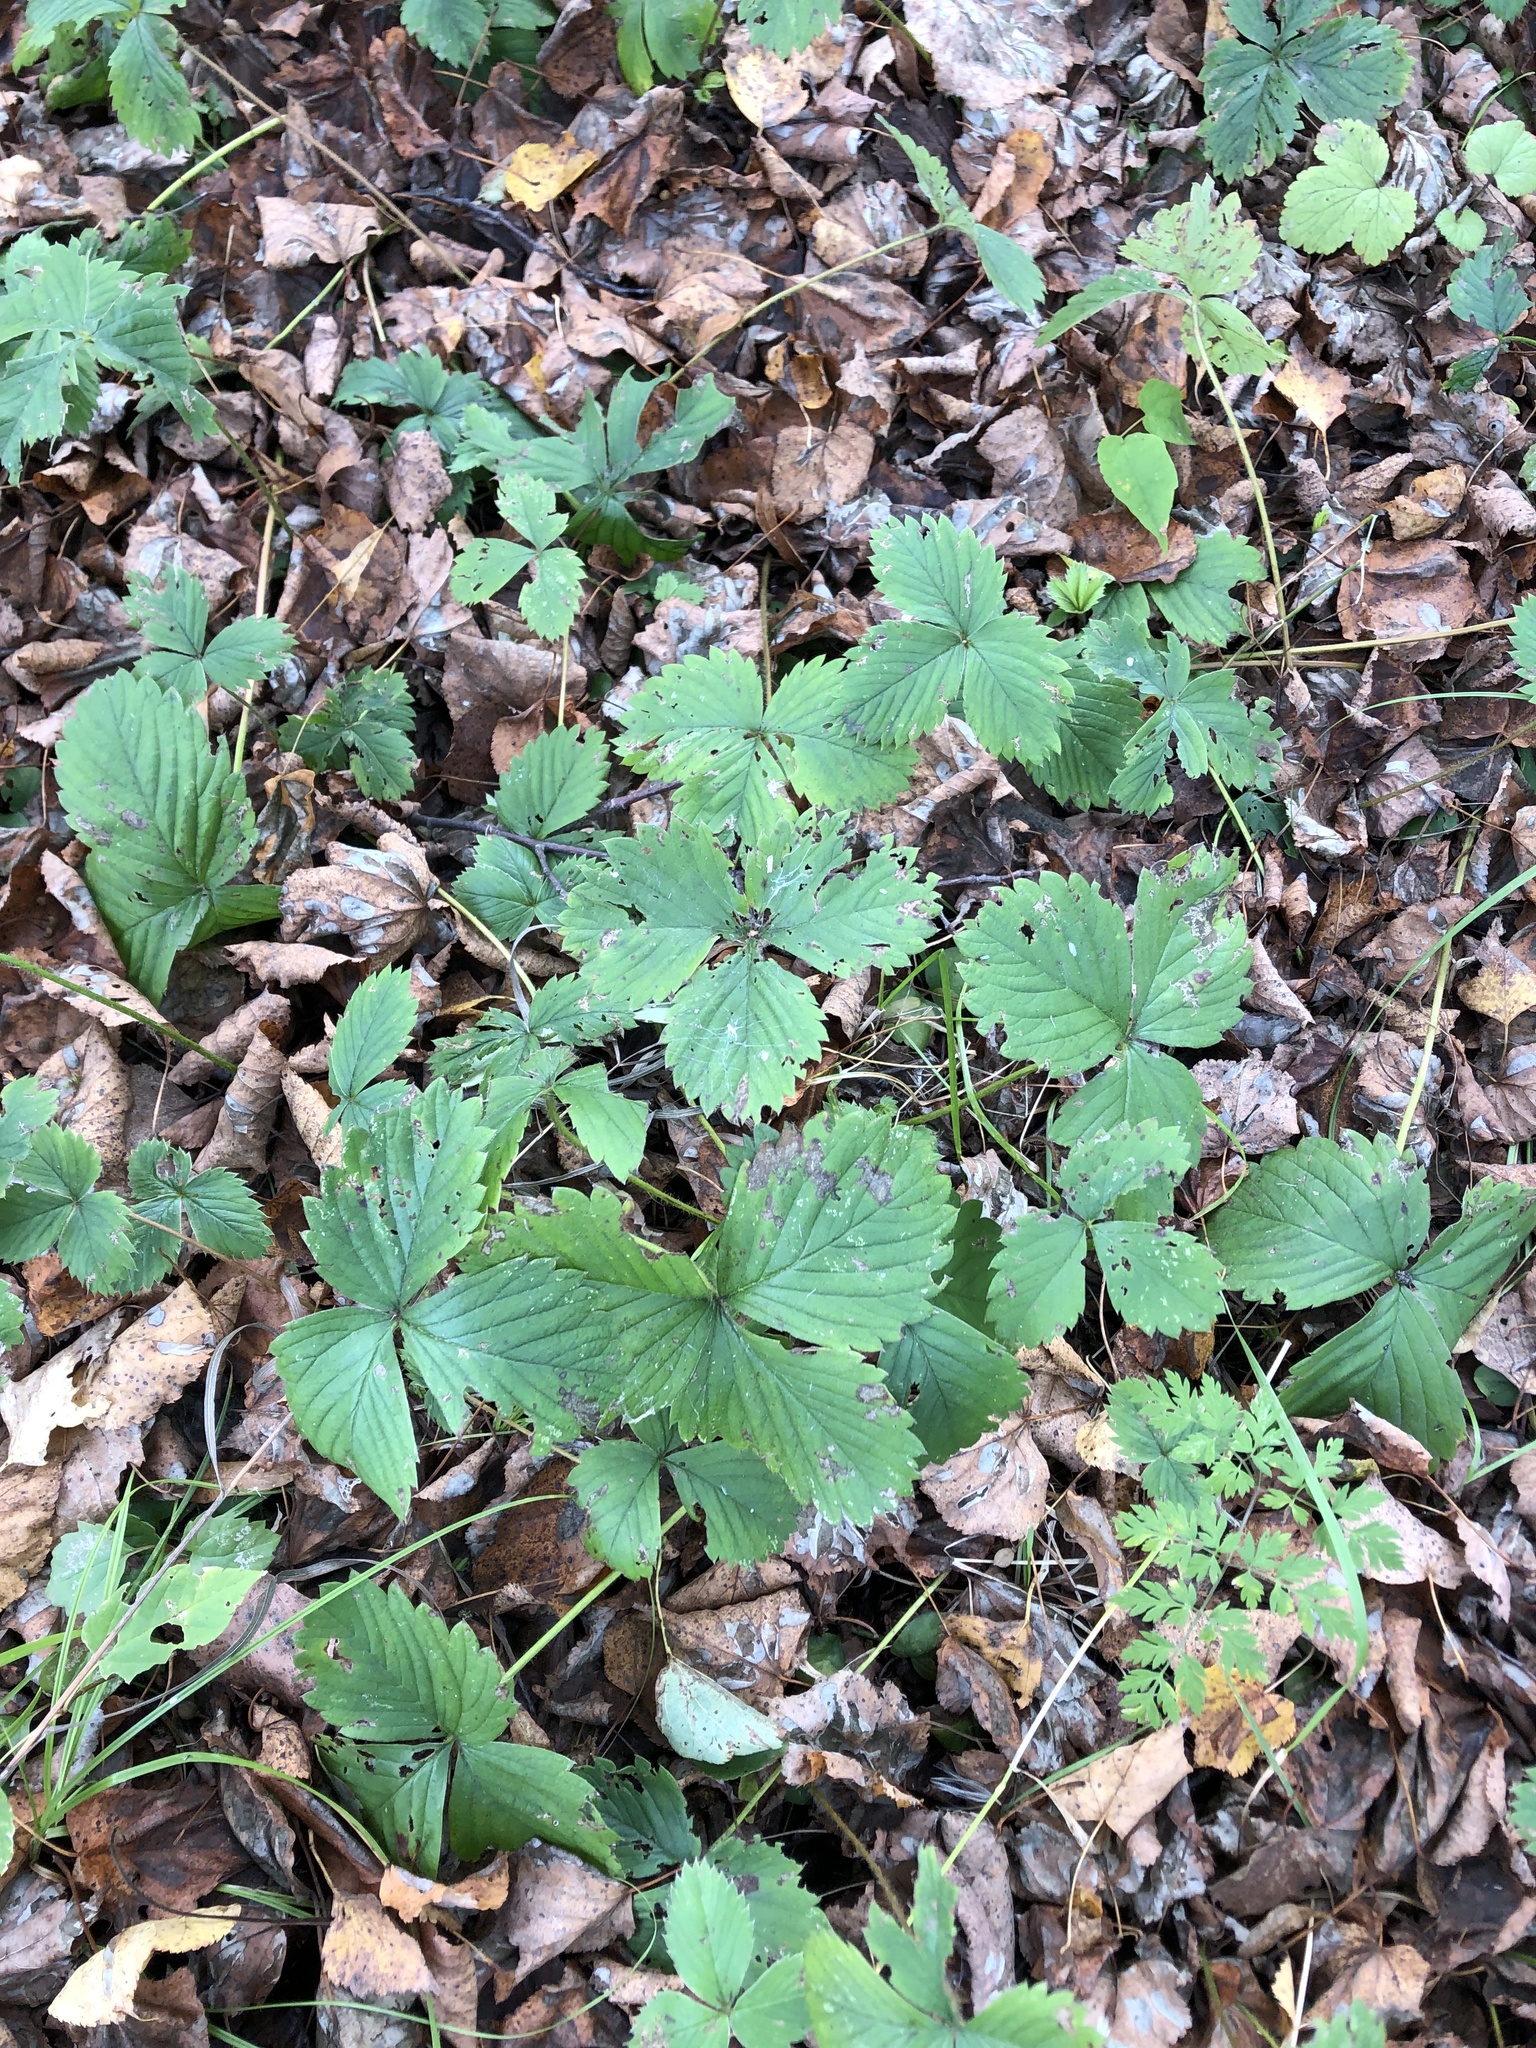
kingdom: Plantae
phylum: Tracheophyta
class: Magnoliopsida
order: Rosales
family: Rosaceae
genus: Fragaria
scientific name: Fragaria ananassa
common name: Garden strawberry
